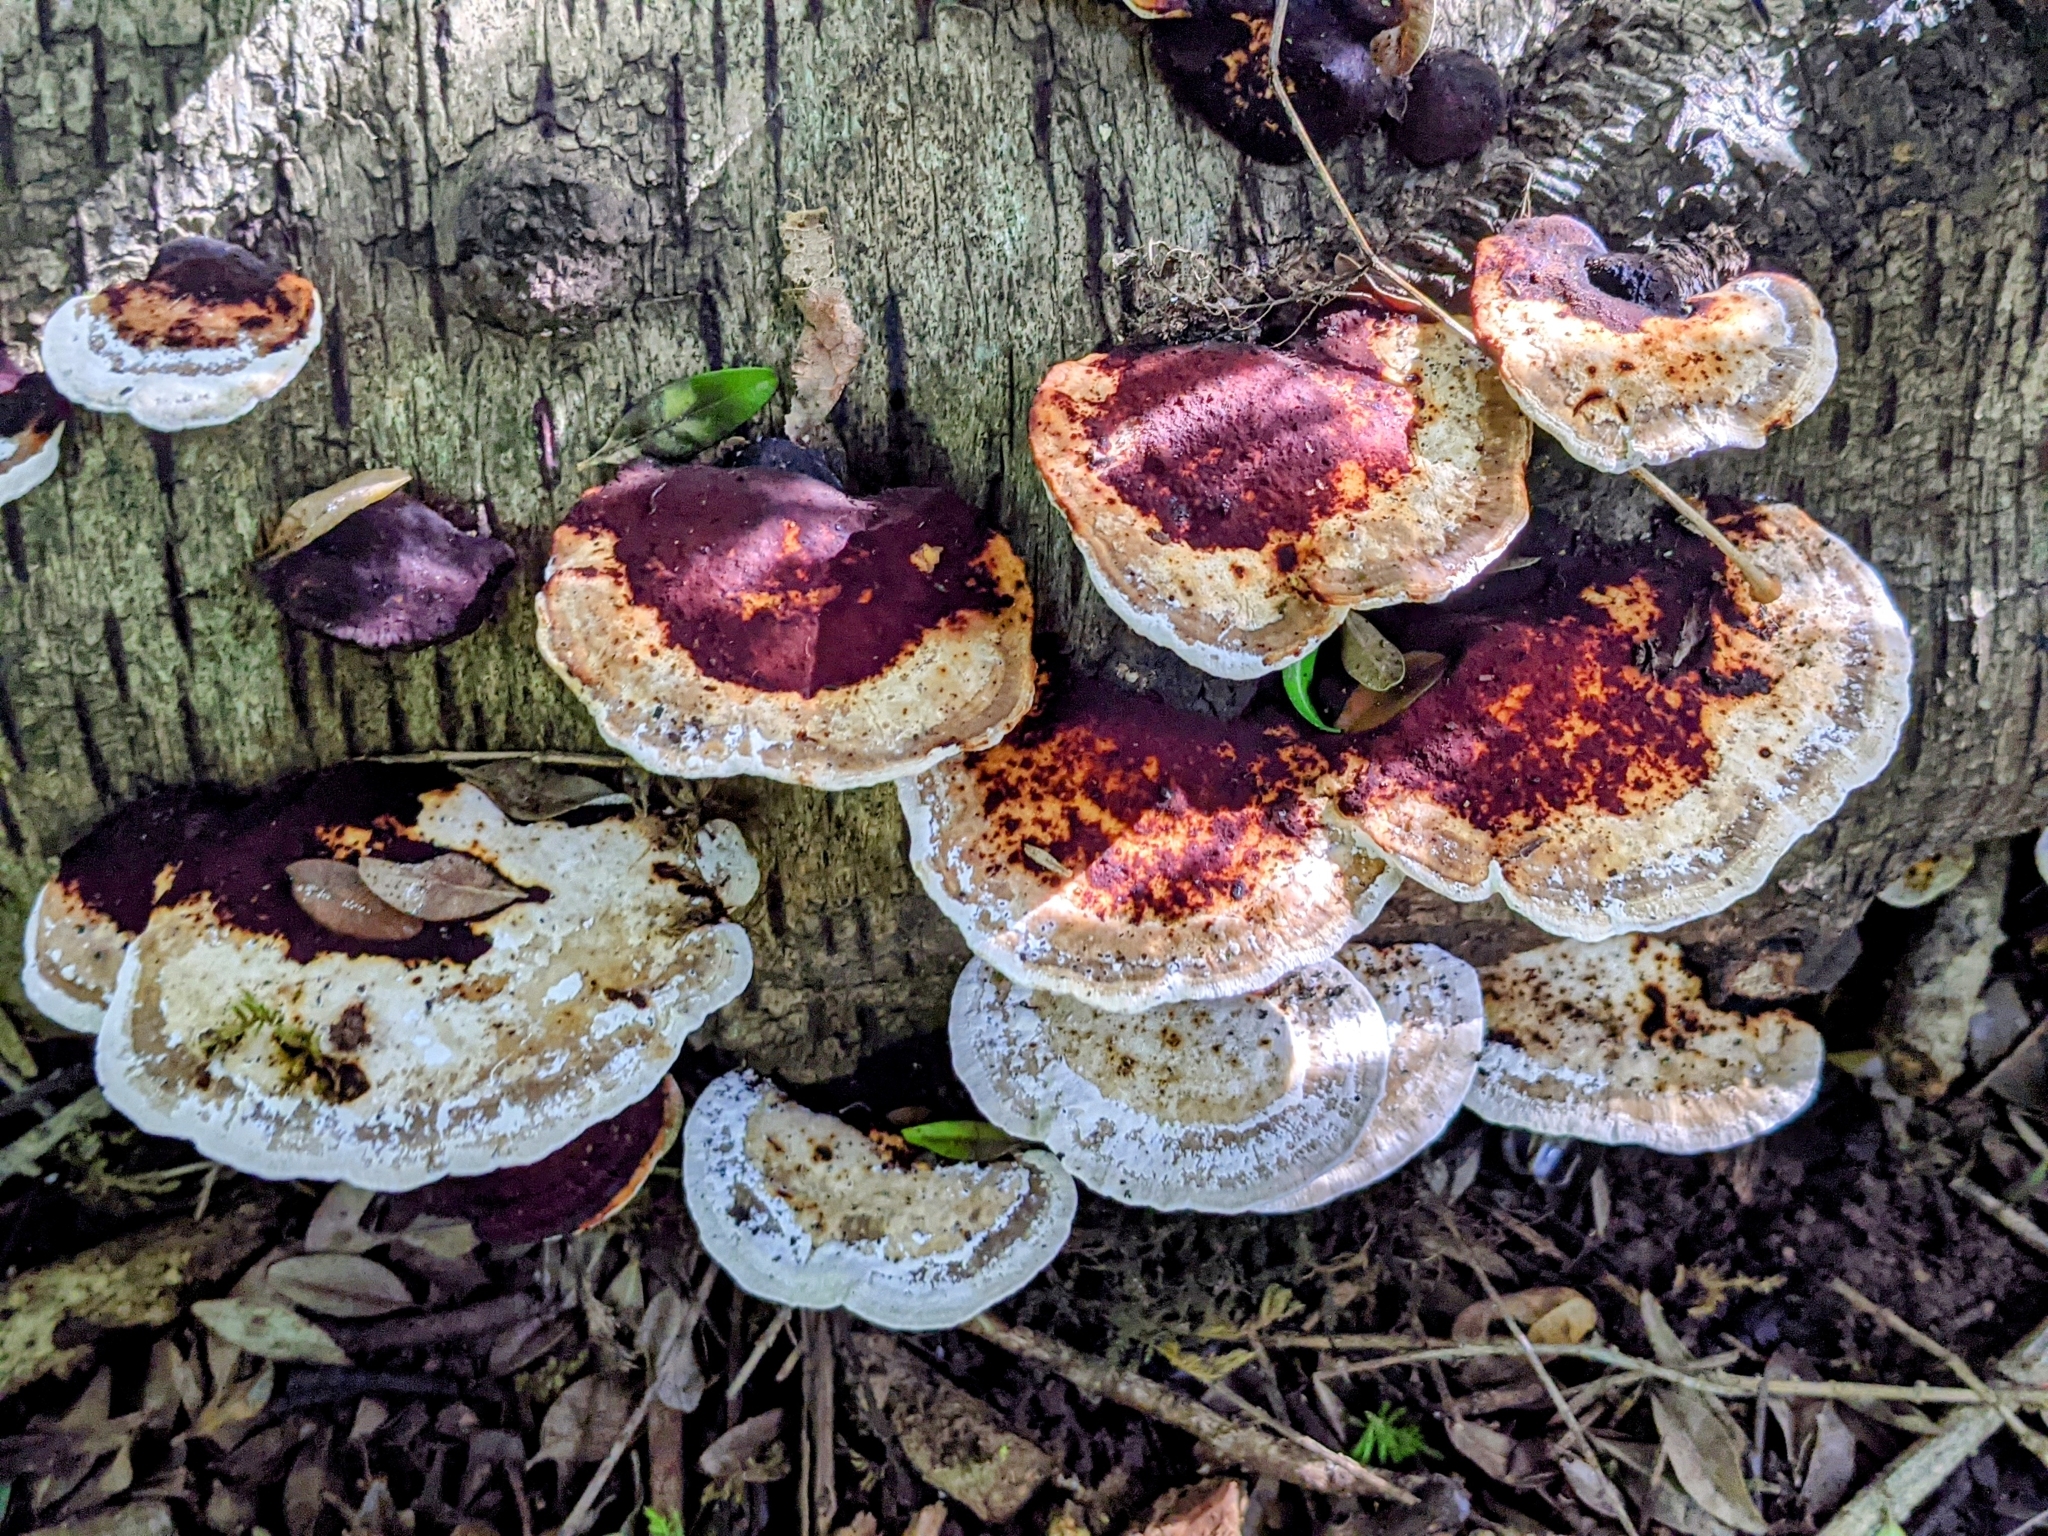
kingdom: Fungi
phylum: Basidiomycota
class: Agaricomycetes
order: Polyporales
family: Polyporaceae
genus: Daedaleopsis
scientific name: Daedaleopsis confragosa
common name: Blushing bracket
